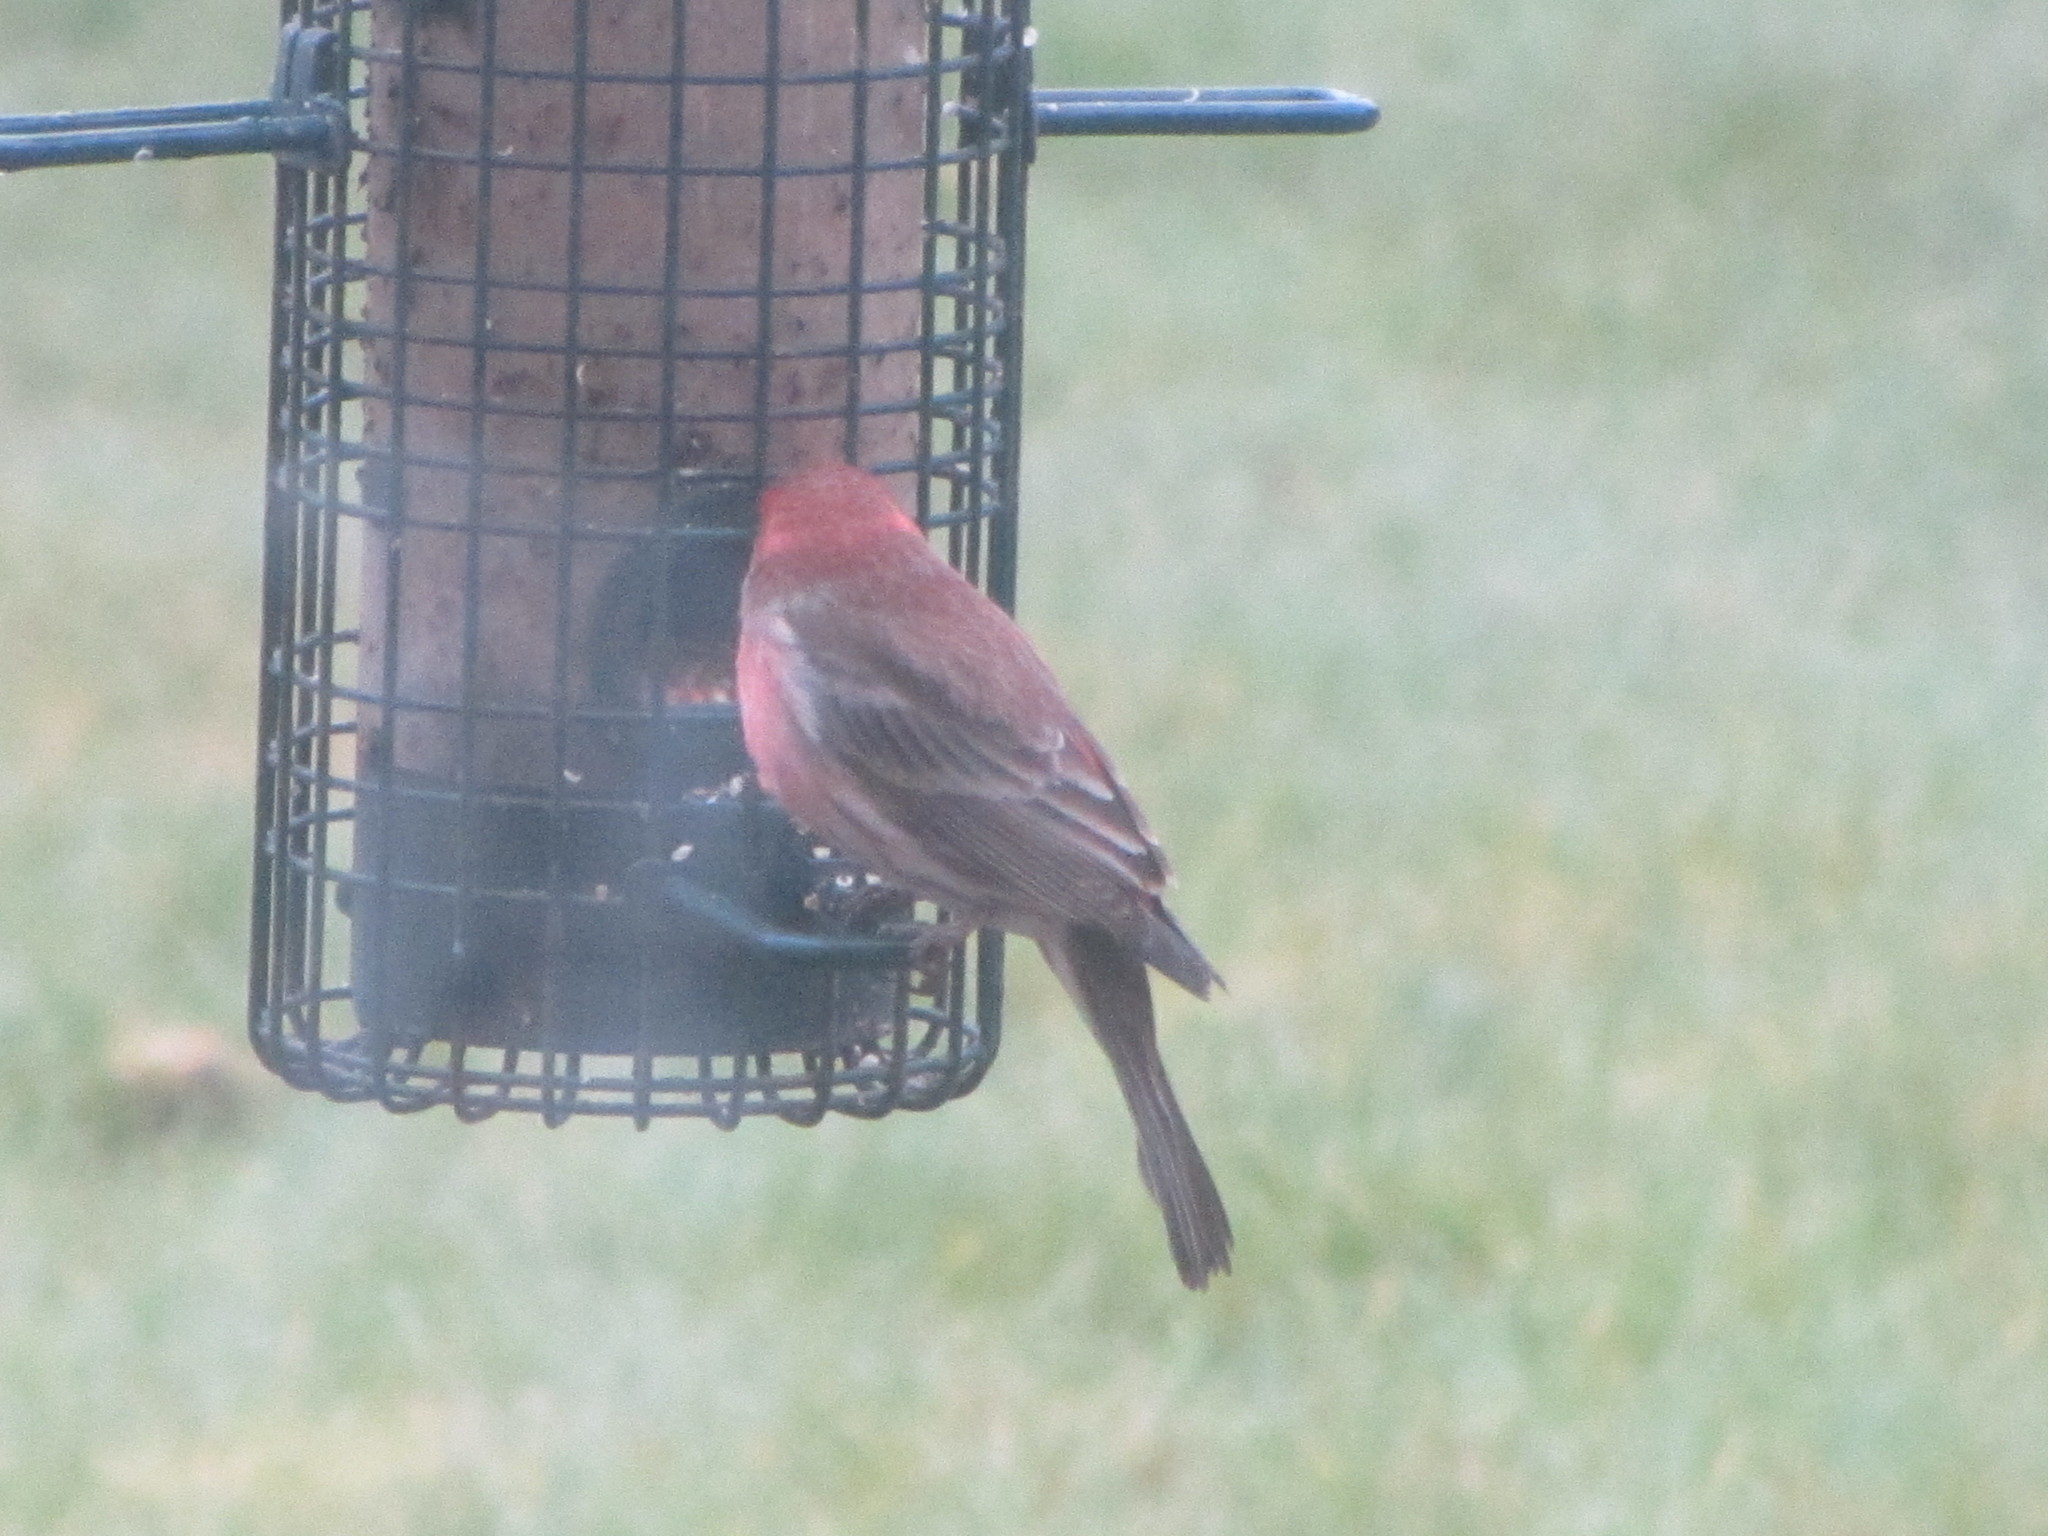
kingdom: Animalia
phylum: Chordata
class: Aves
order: Passeriformes
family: Fringillidae
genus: Haemorhous
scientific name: Haemorhous mexicanus
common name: House finch
